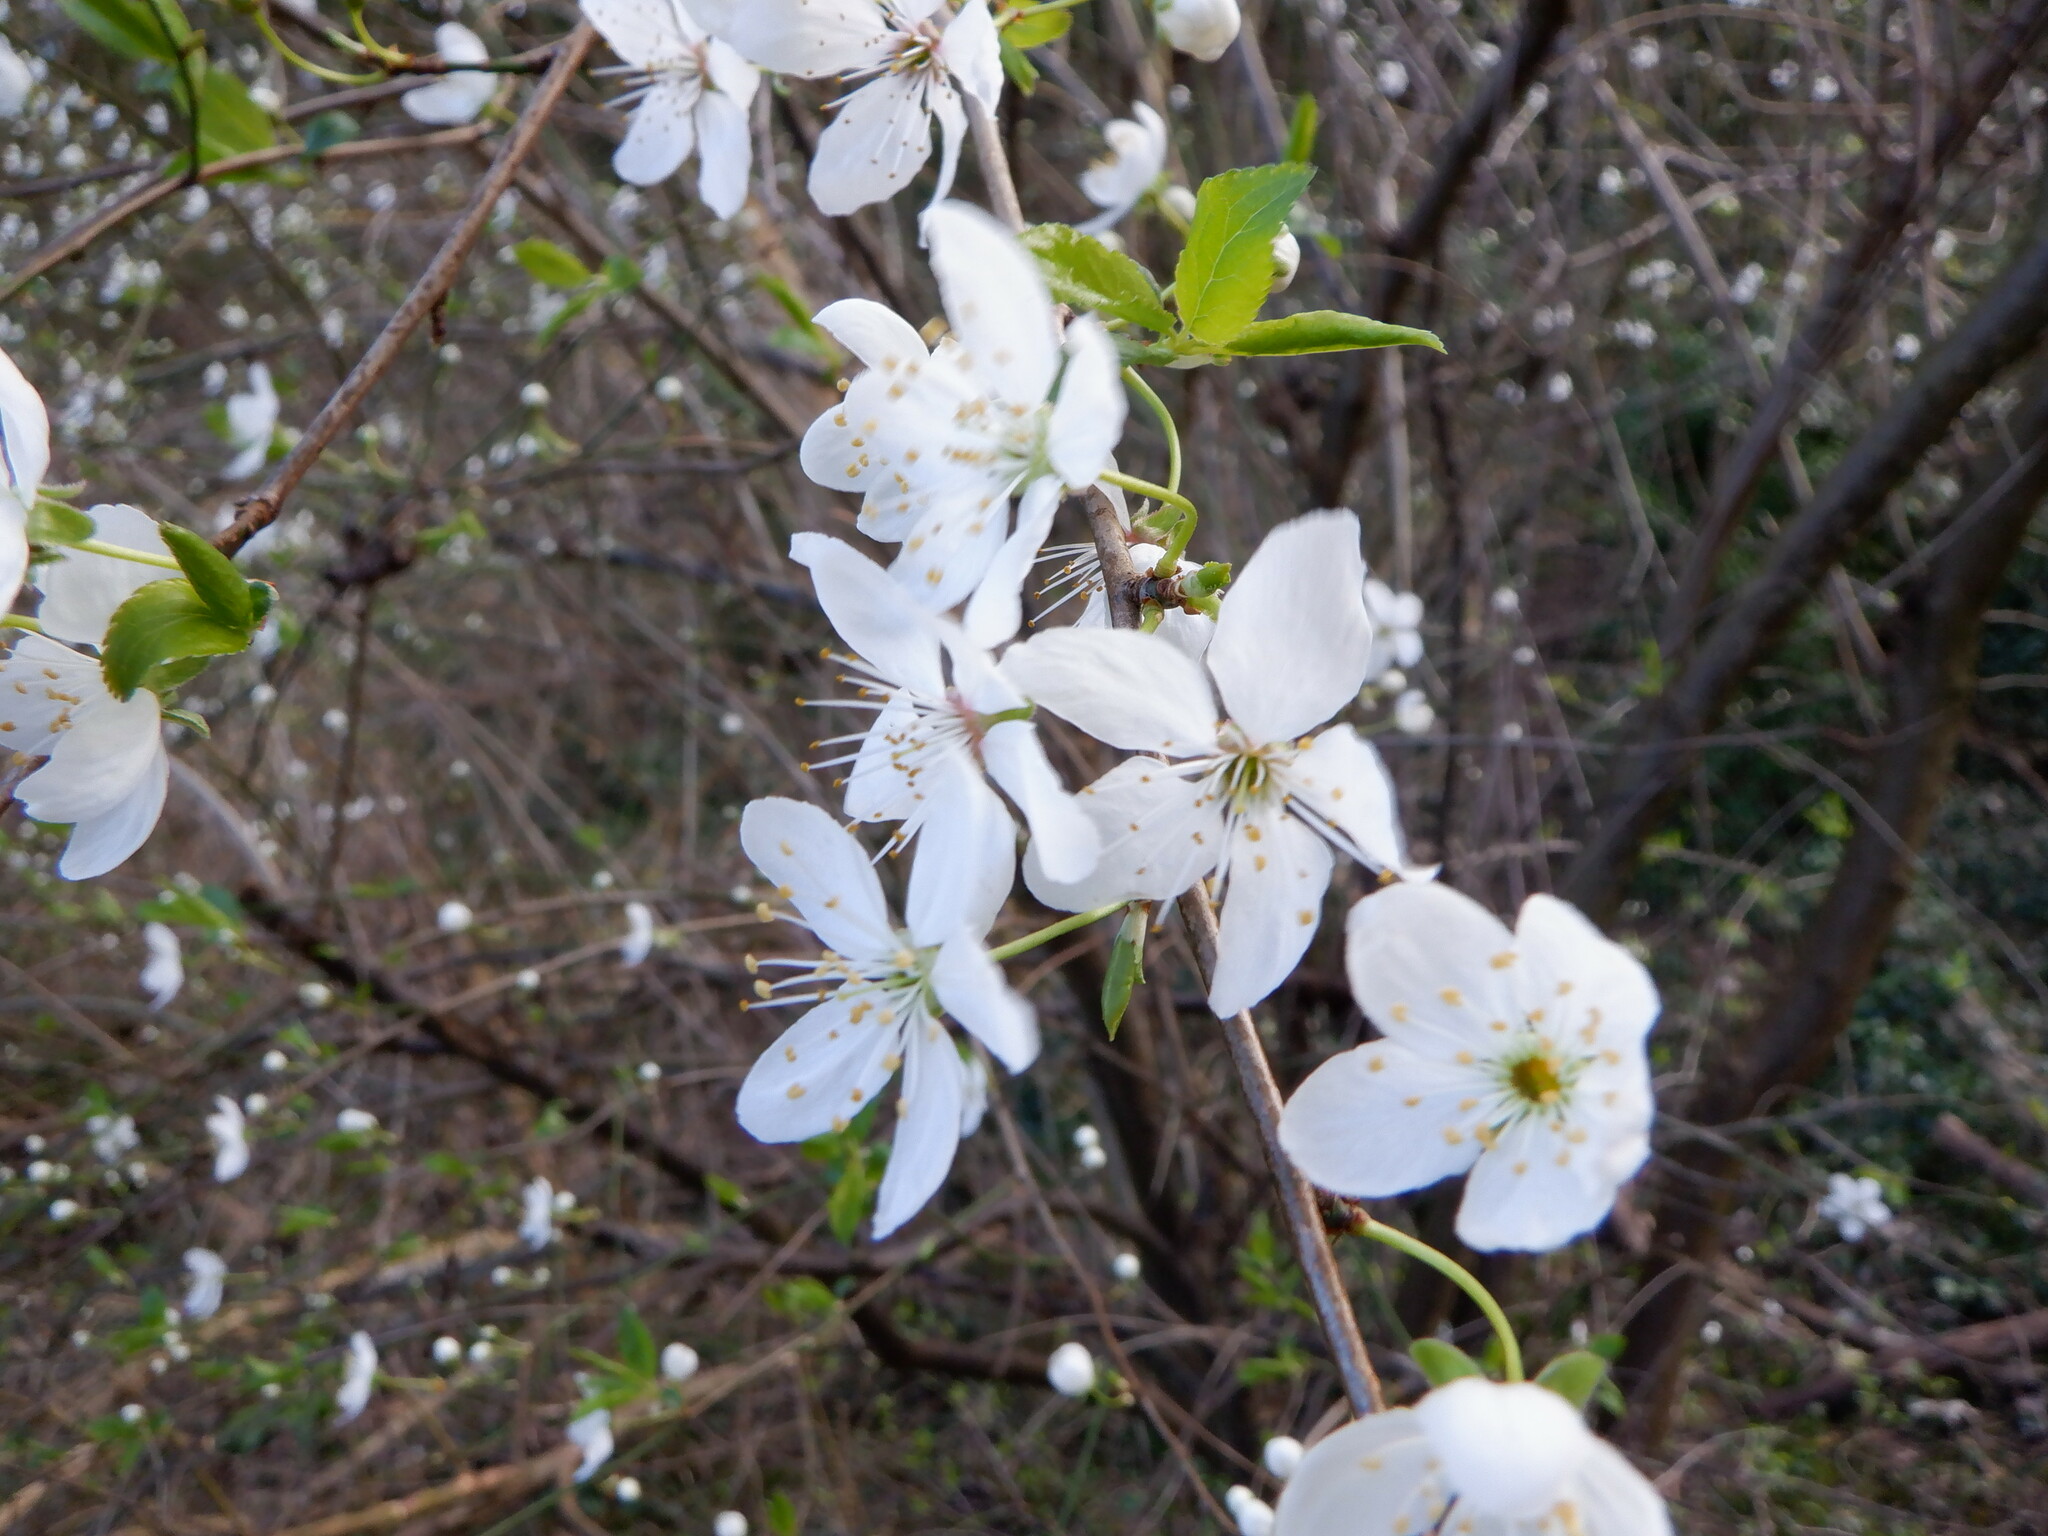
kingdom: Plantae
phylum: Tracheophyta
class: Magnoliopsida
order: Rosales
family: Rosaceae
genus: Prunus
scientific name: Prunus cerasifera
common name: Cherry plum
